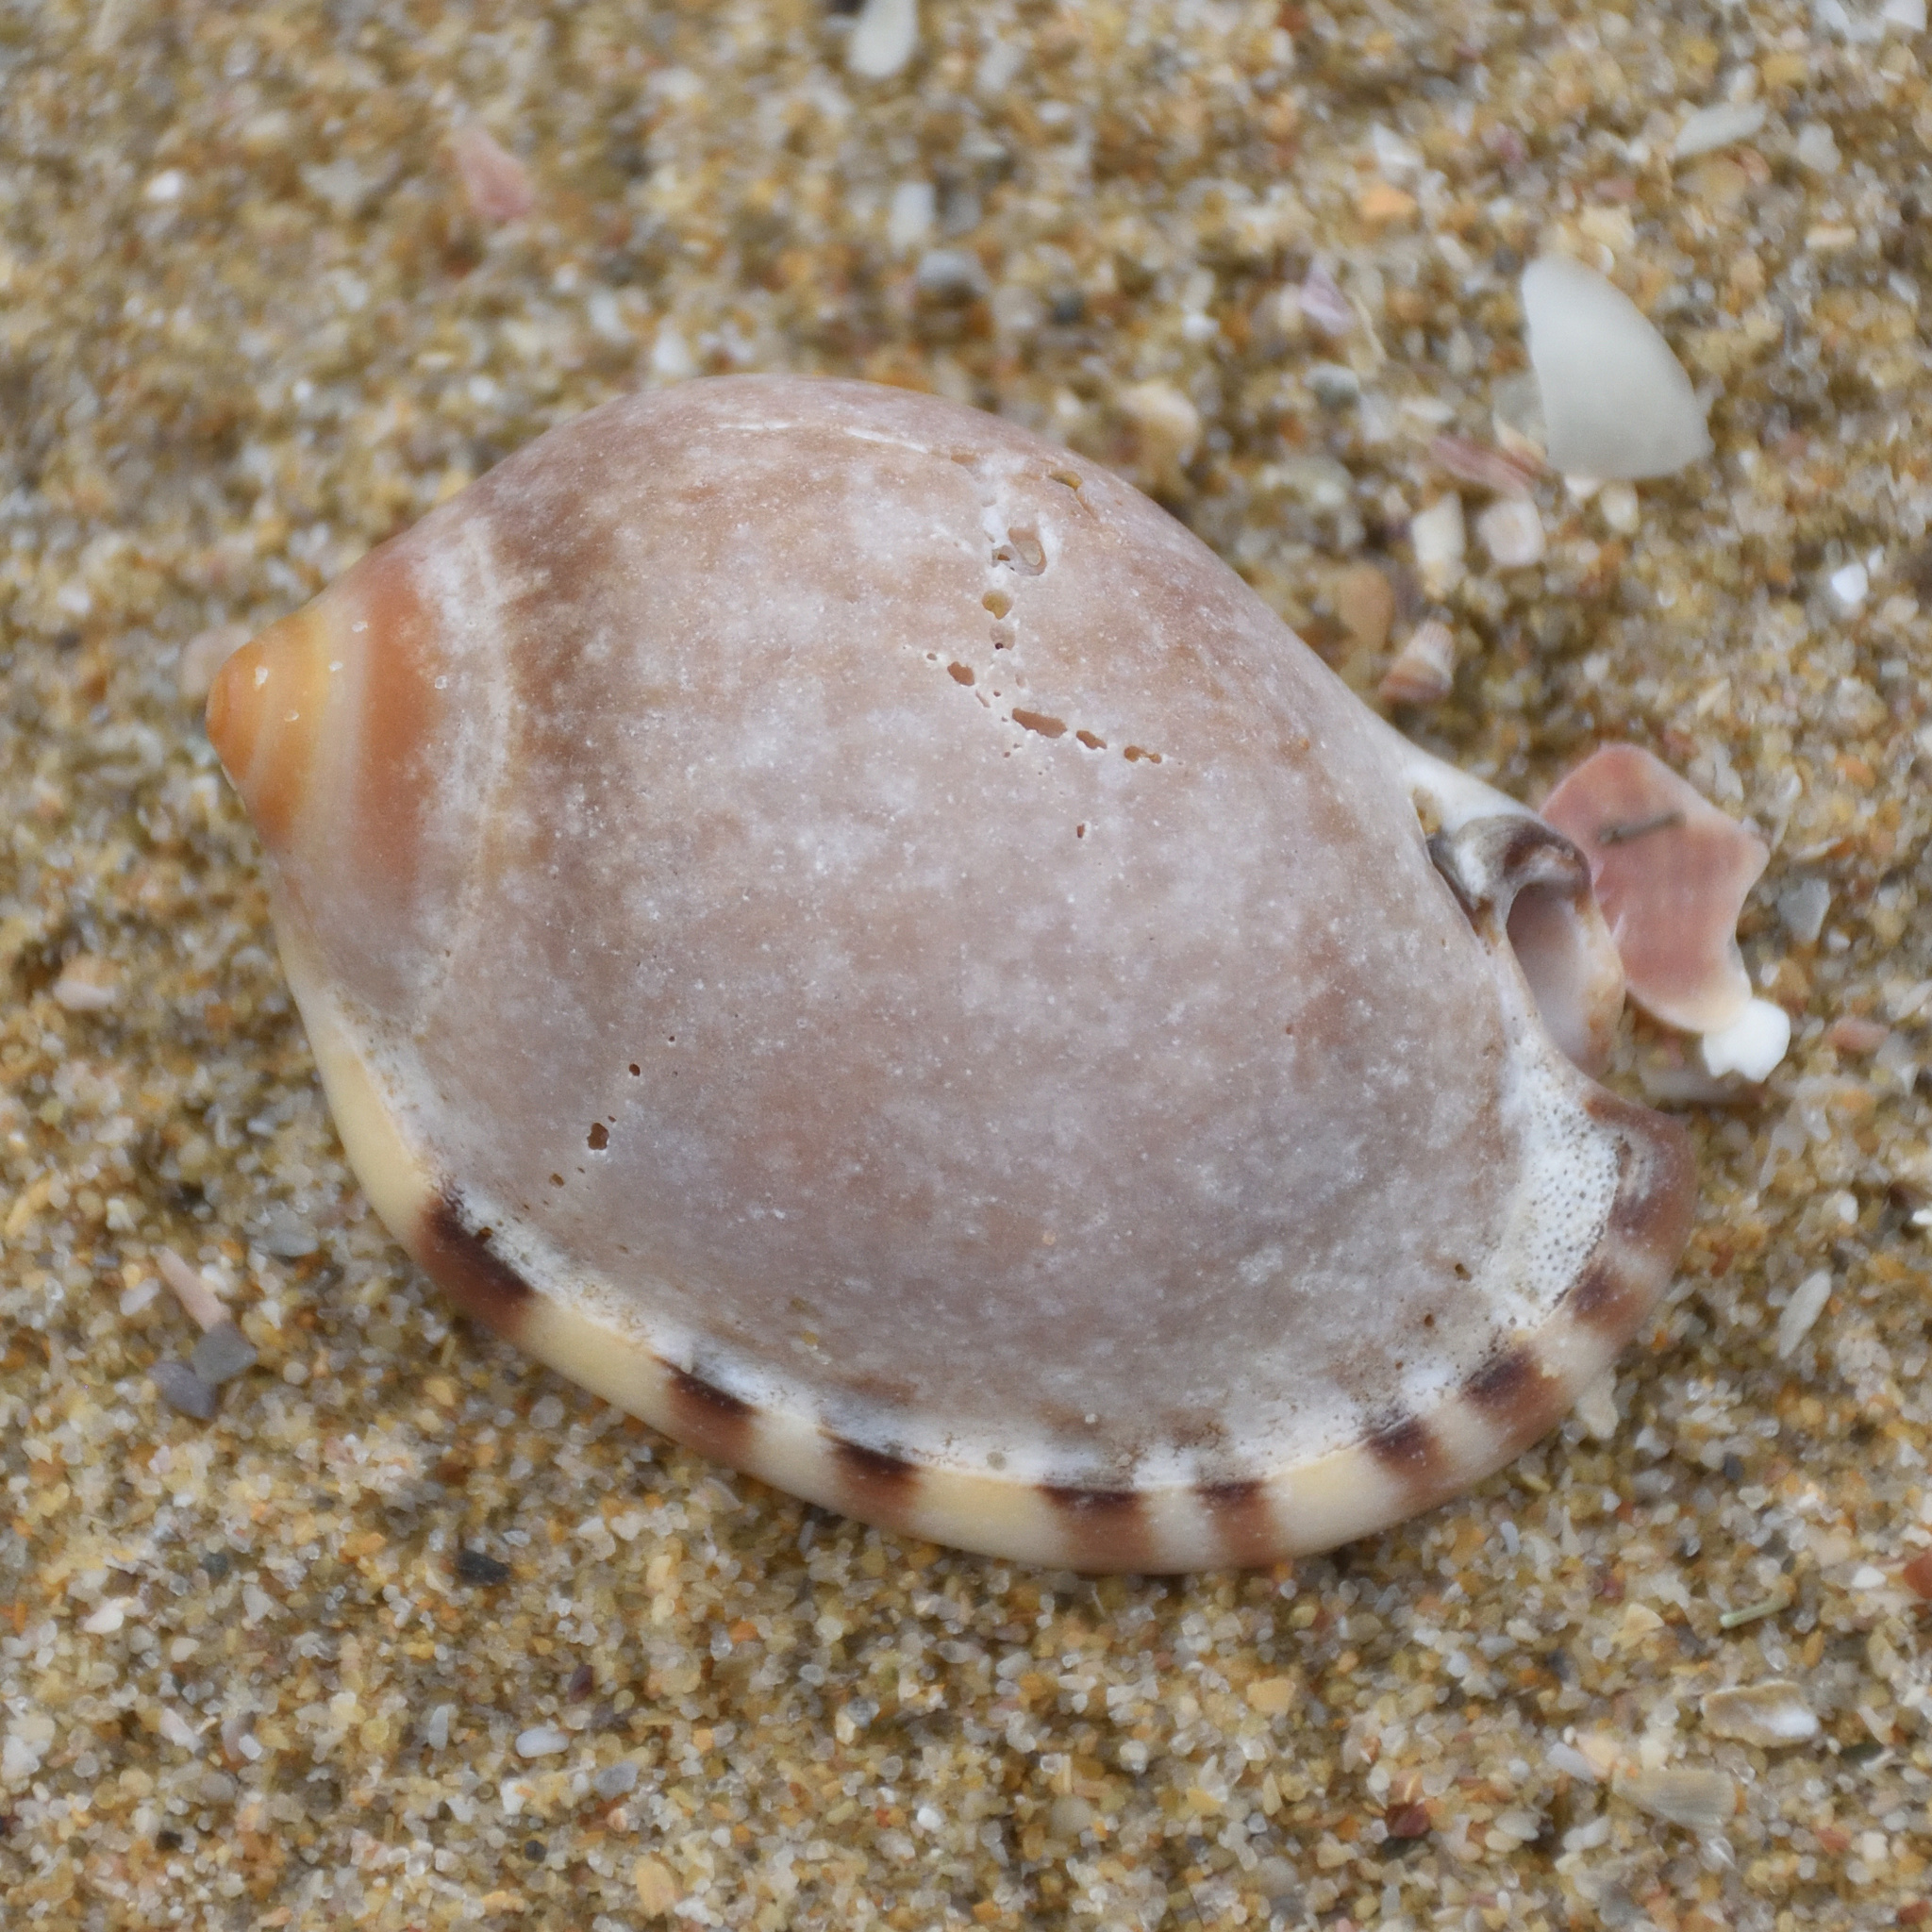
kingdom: Animalia
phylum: Mollusca
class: Gastropoda
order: Littorinimorpha
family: Cassidae
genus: Semicassis
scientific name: Semicassis zeylanica
